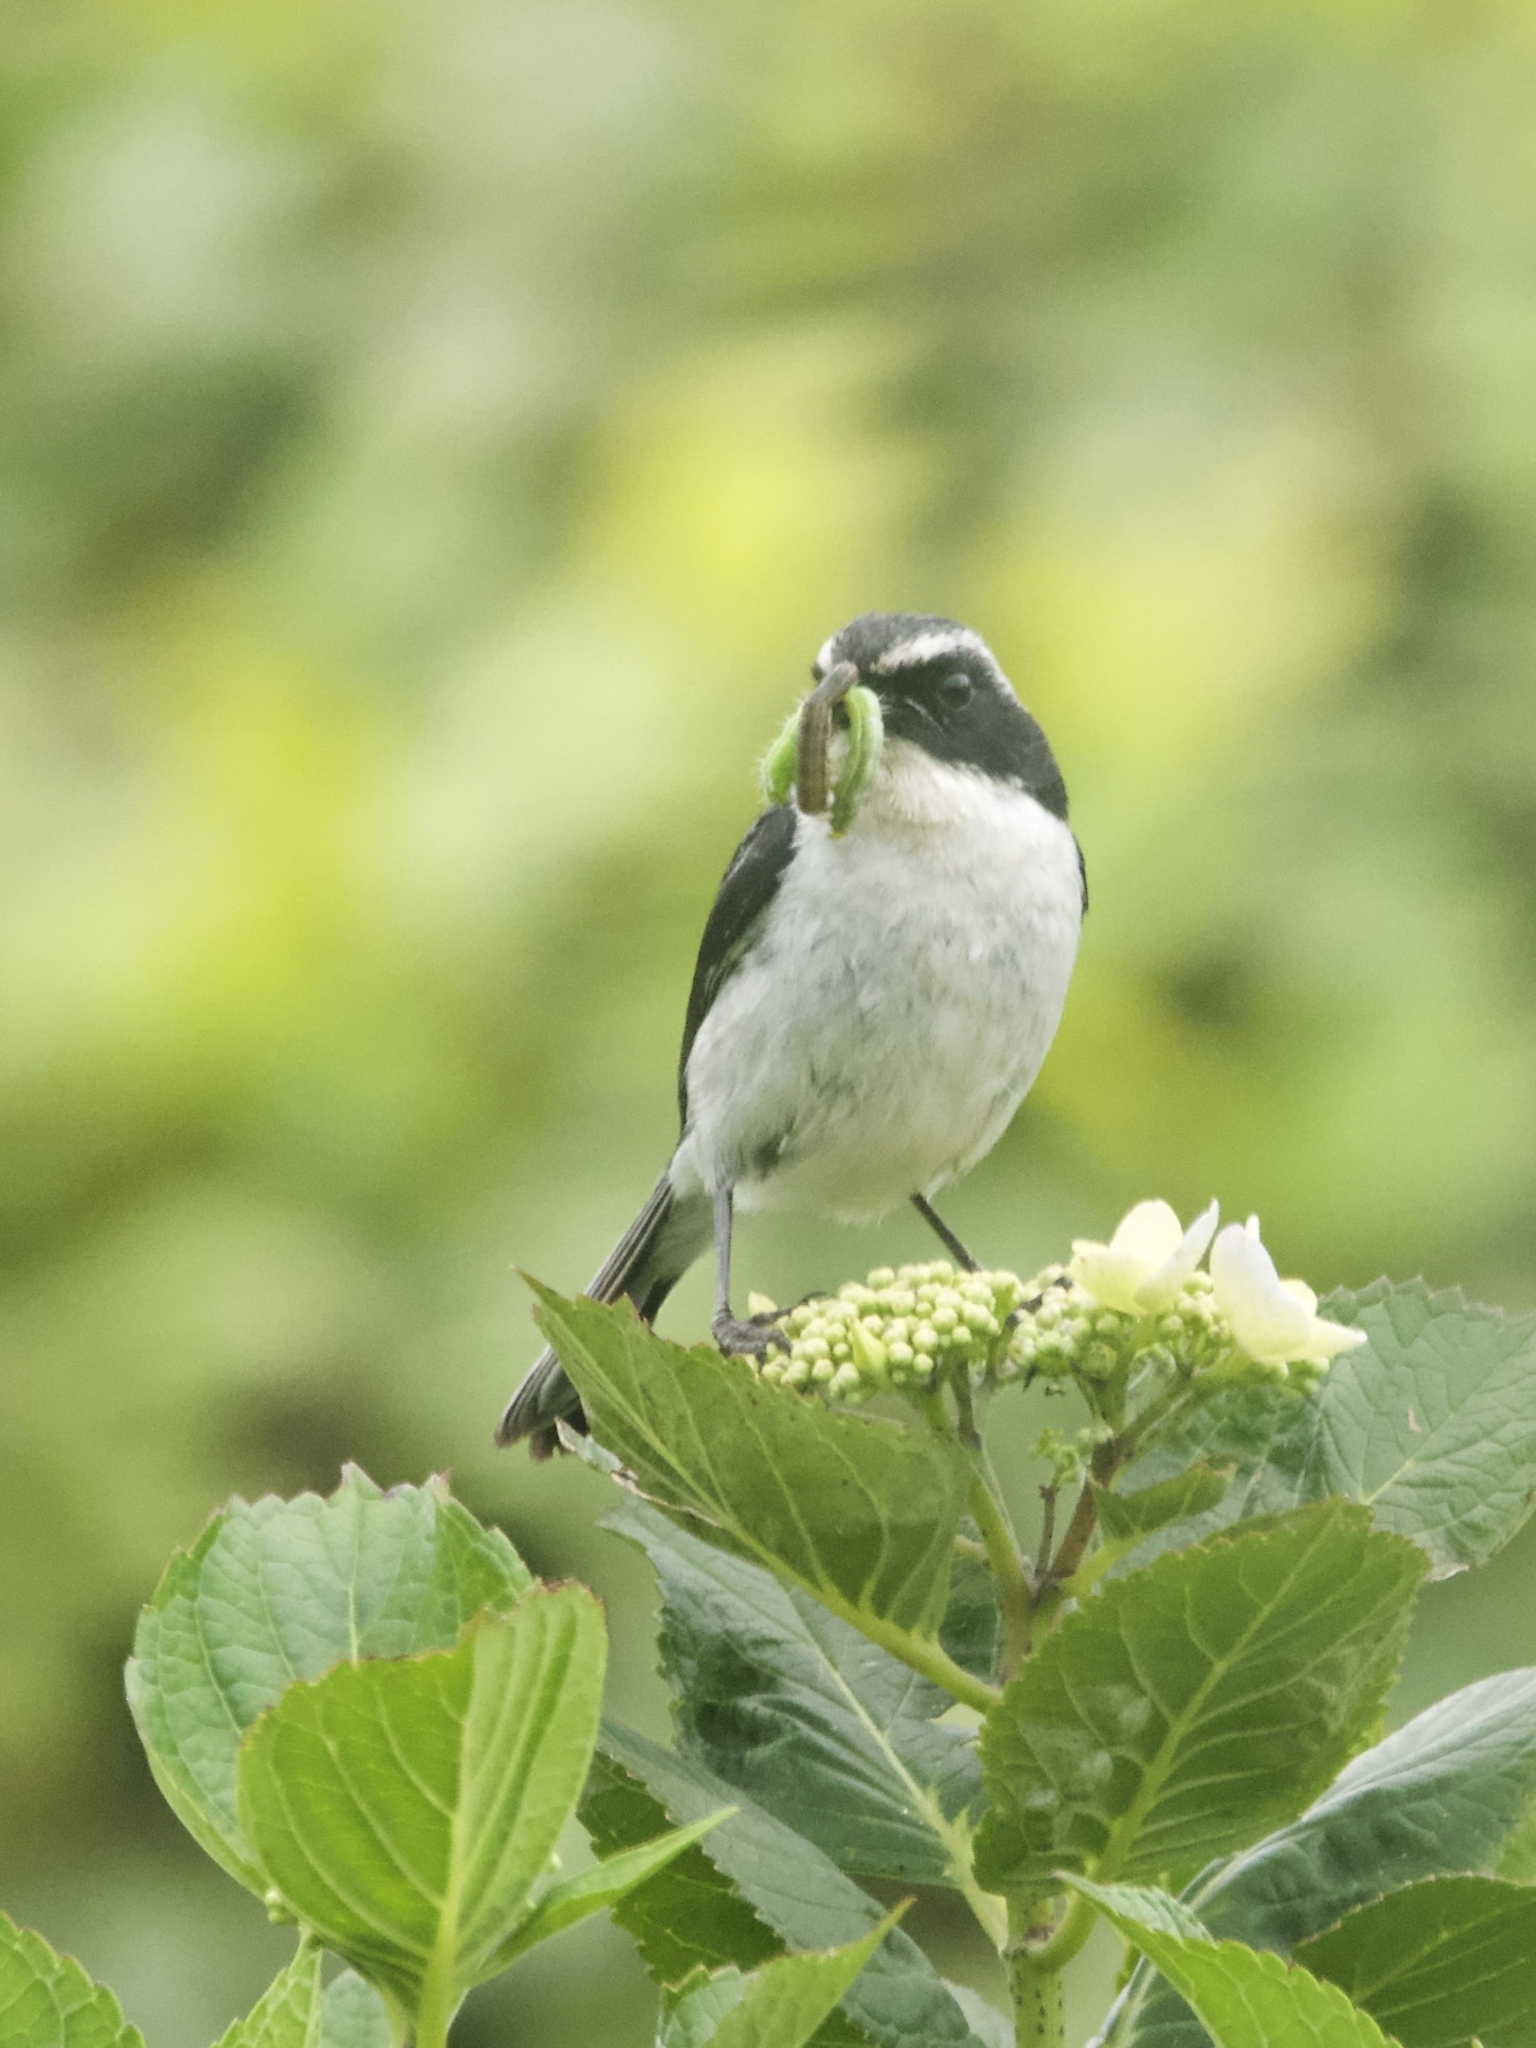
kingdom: Animalia
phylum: Chordata
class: Aves
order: Passeriformes
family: Muscicapidae
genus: Saxicola
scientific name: Saxicola ferreus
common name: Grey bush chat
